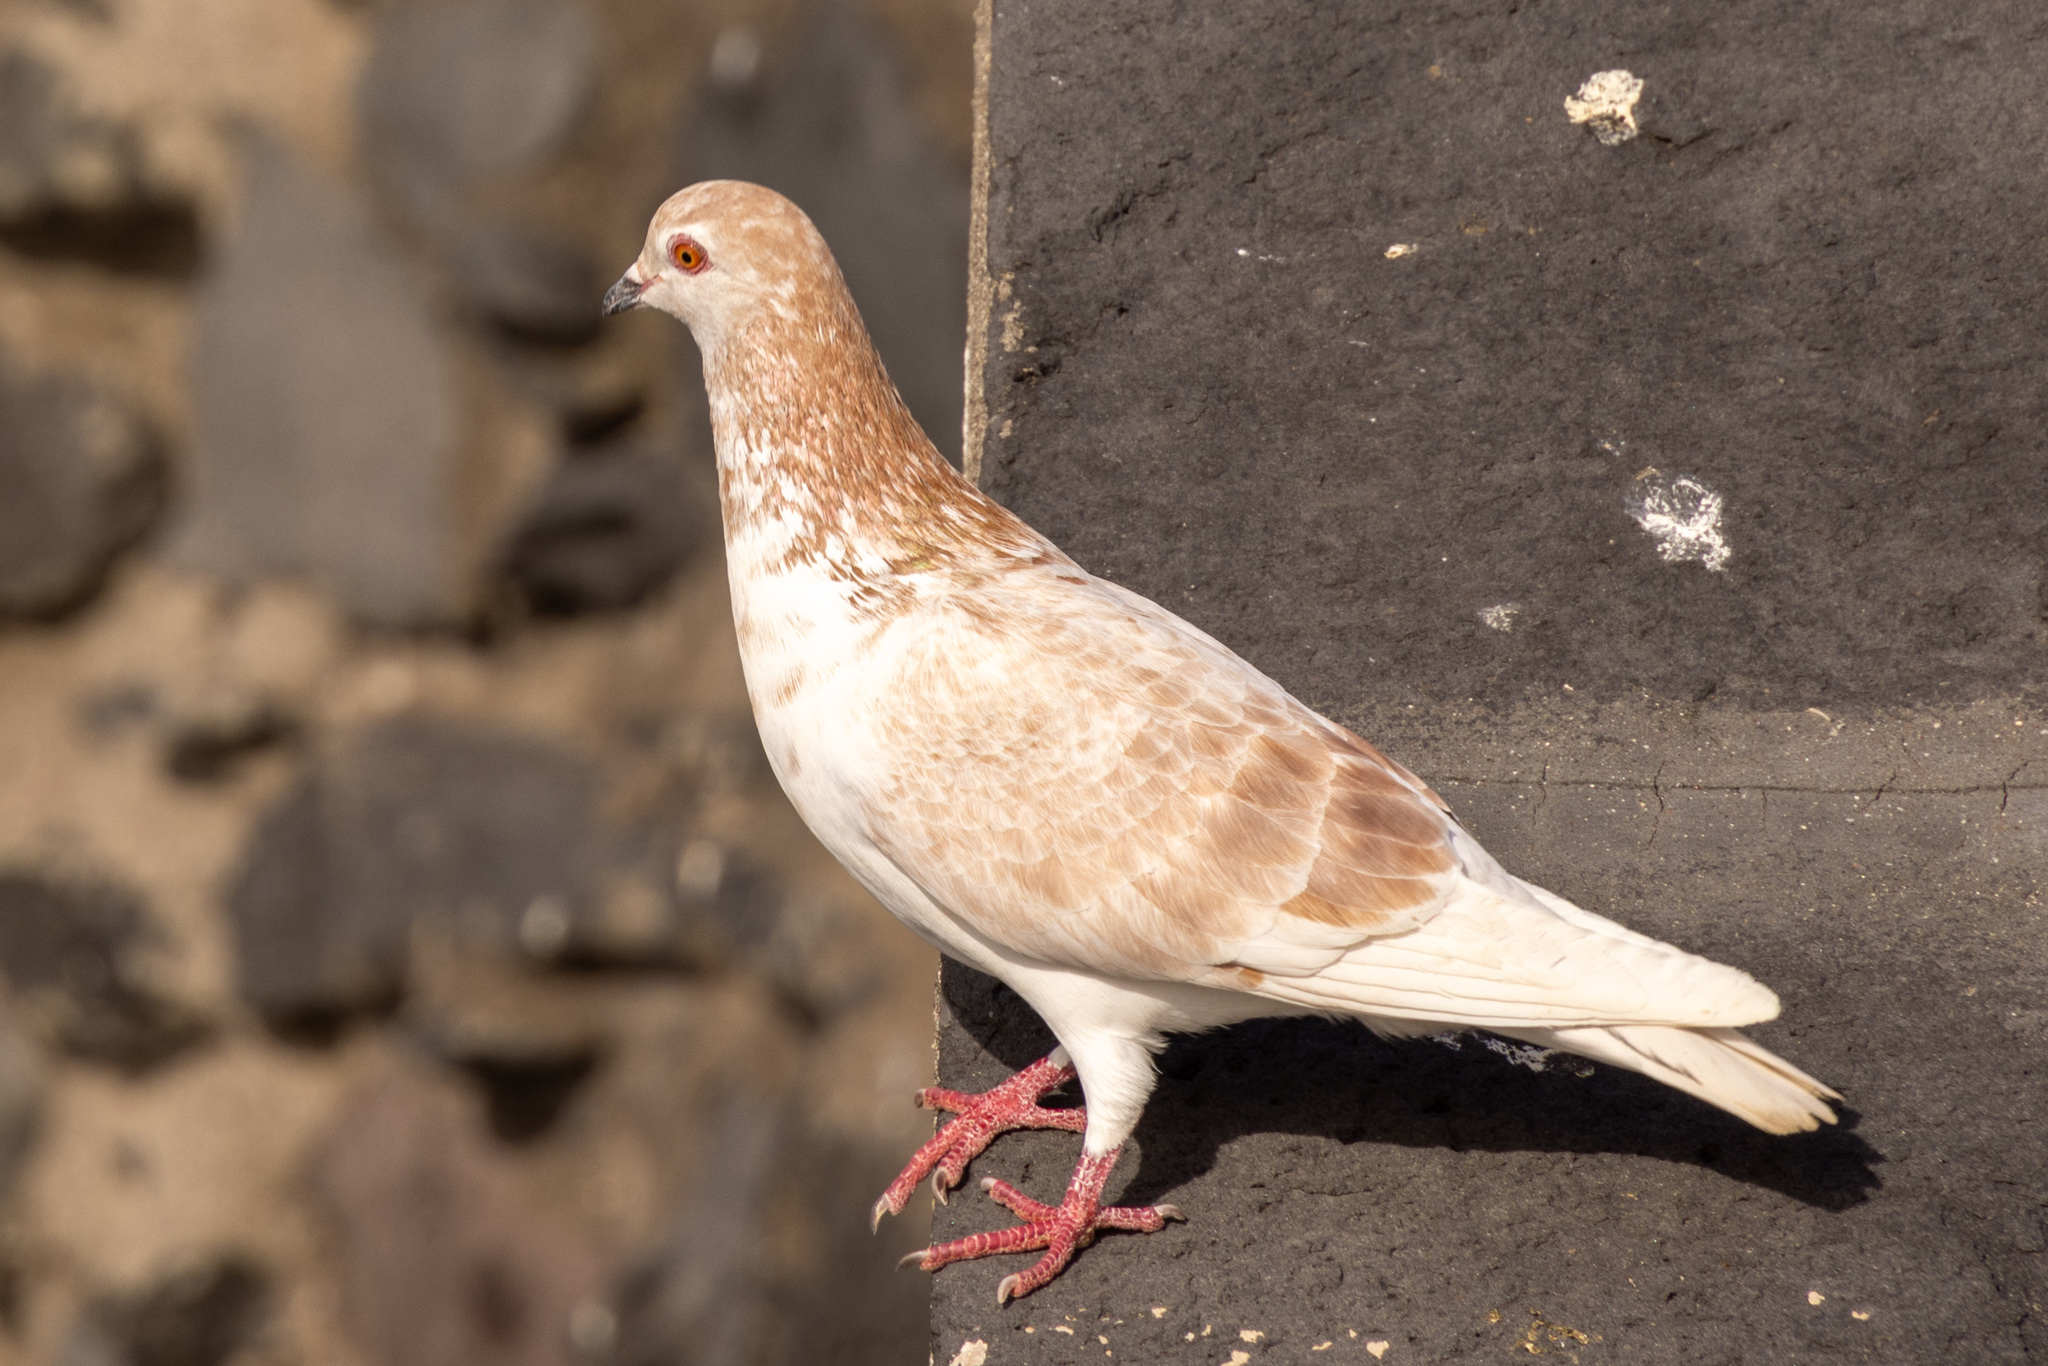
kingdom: Animalia
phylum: Chordata
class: Aves
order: Columbiformes
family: Columbidae
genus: Columba
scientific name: Columba livia
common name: Rock pigeon
